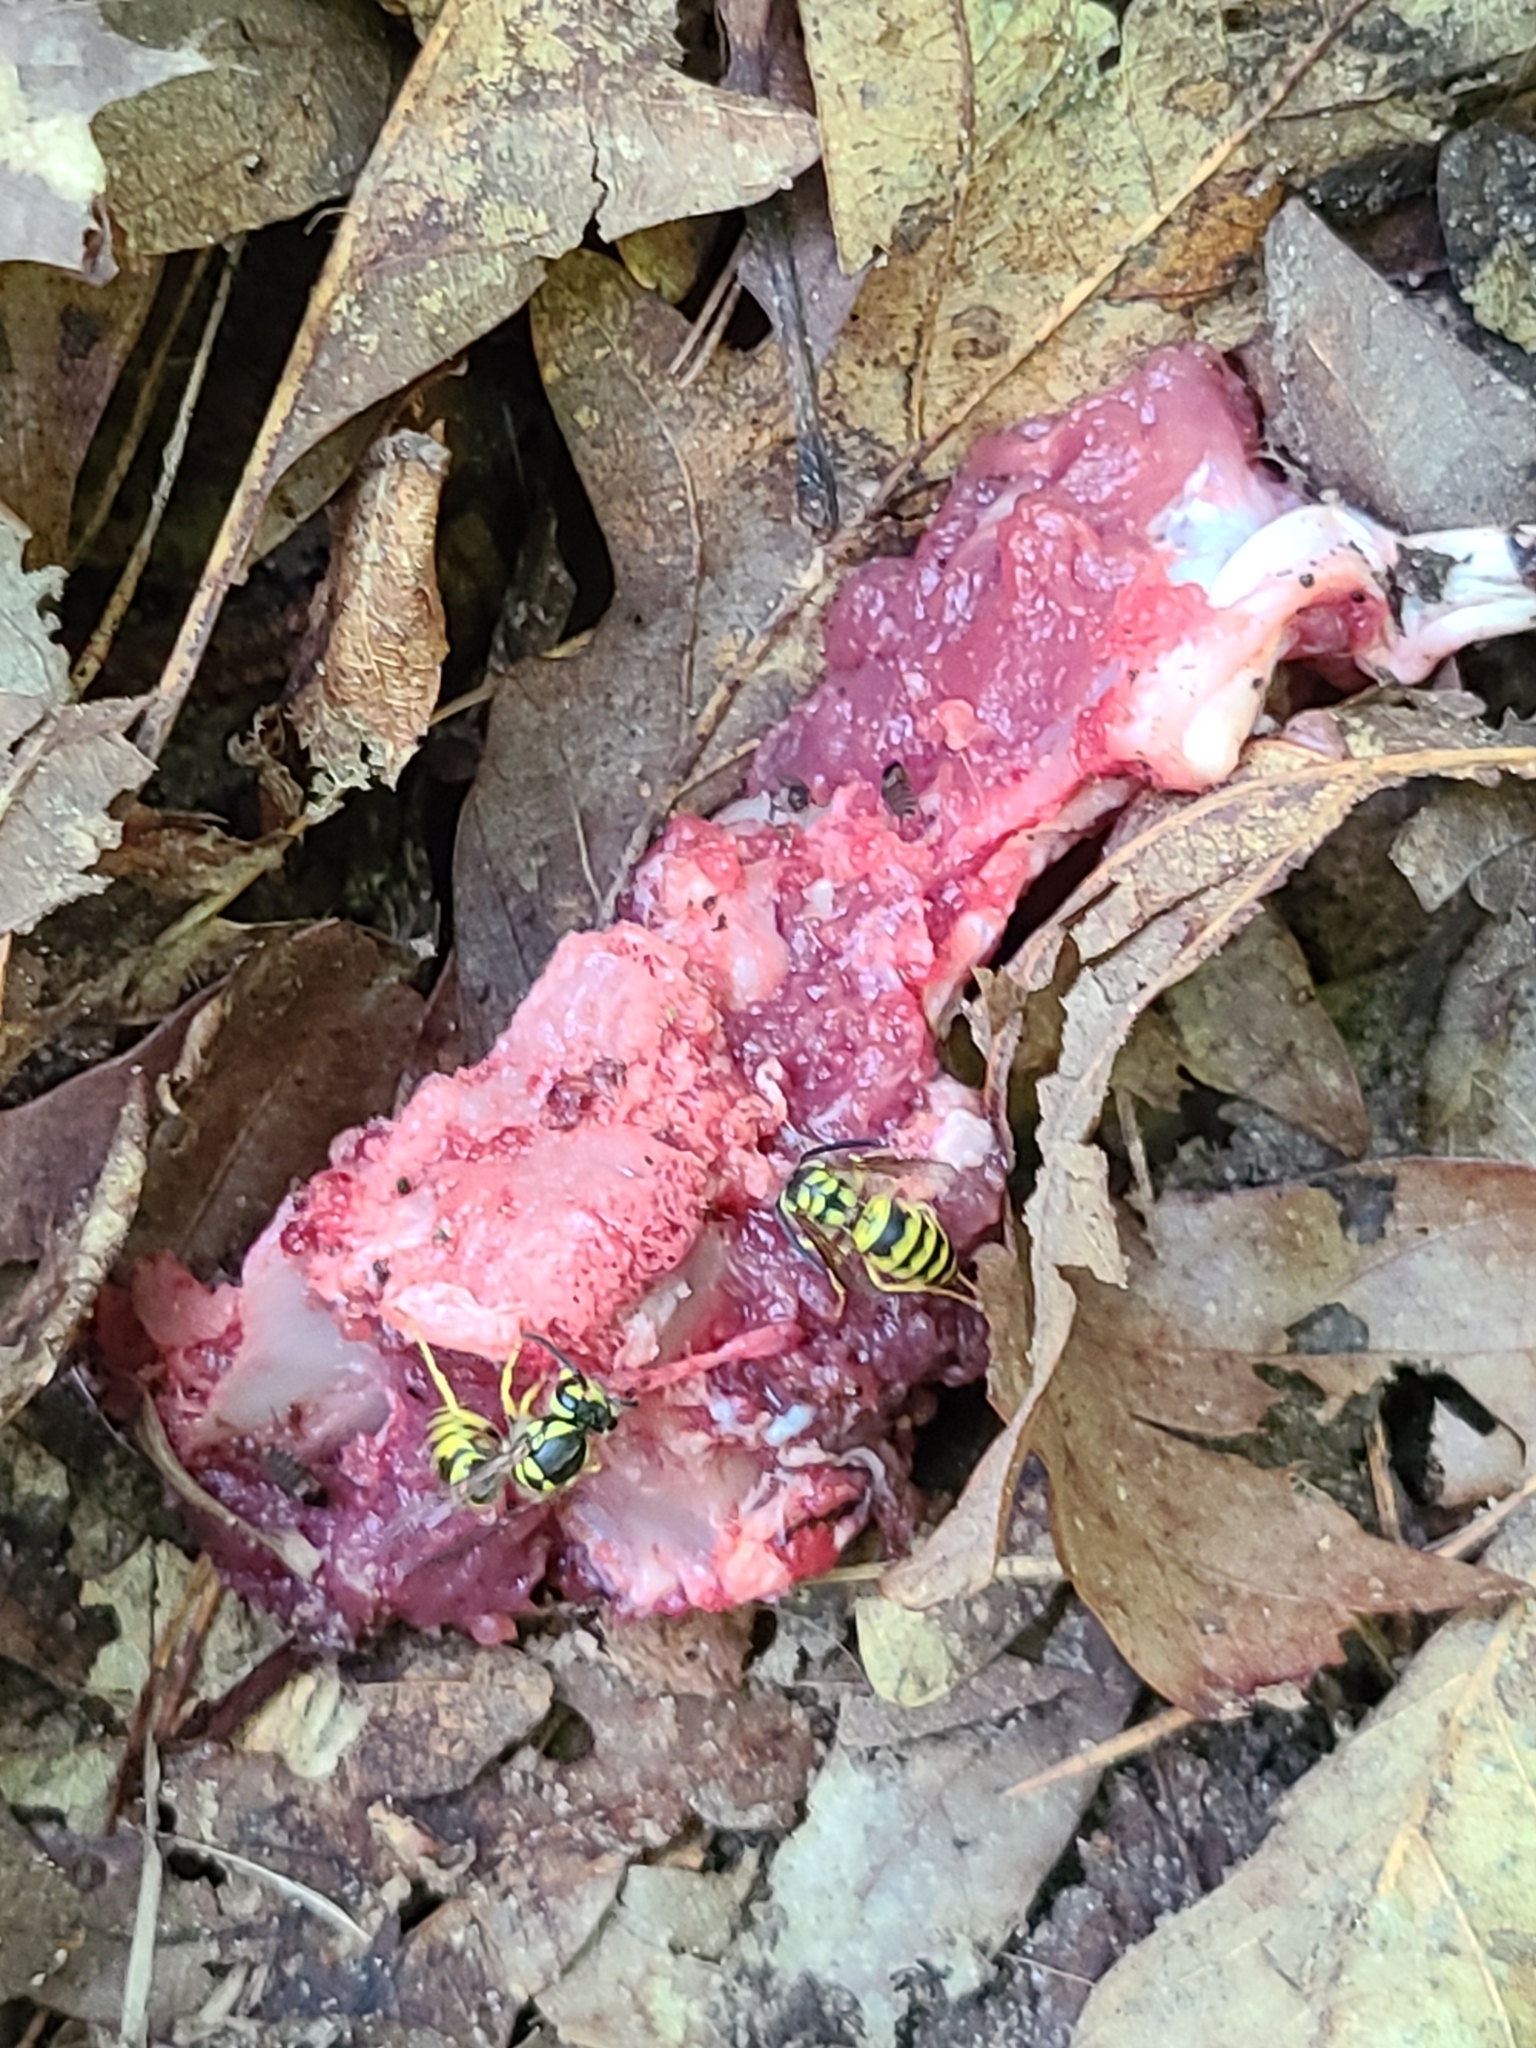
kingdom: Animalia
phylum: Arthropoda
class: Insecta
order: Hymenoptera
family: Vespidae
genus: Vespula
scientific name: Vespula maculifrons
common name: Eastern yellowjacket
